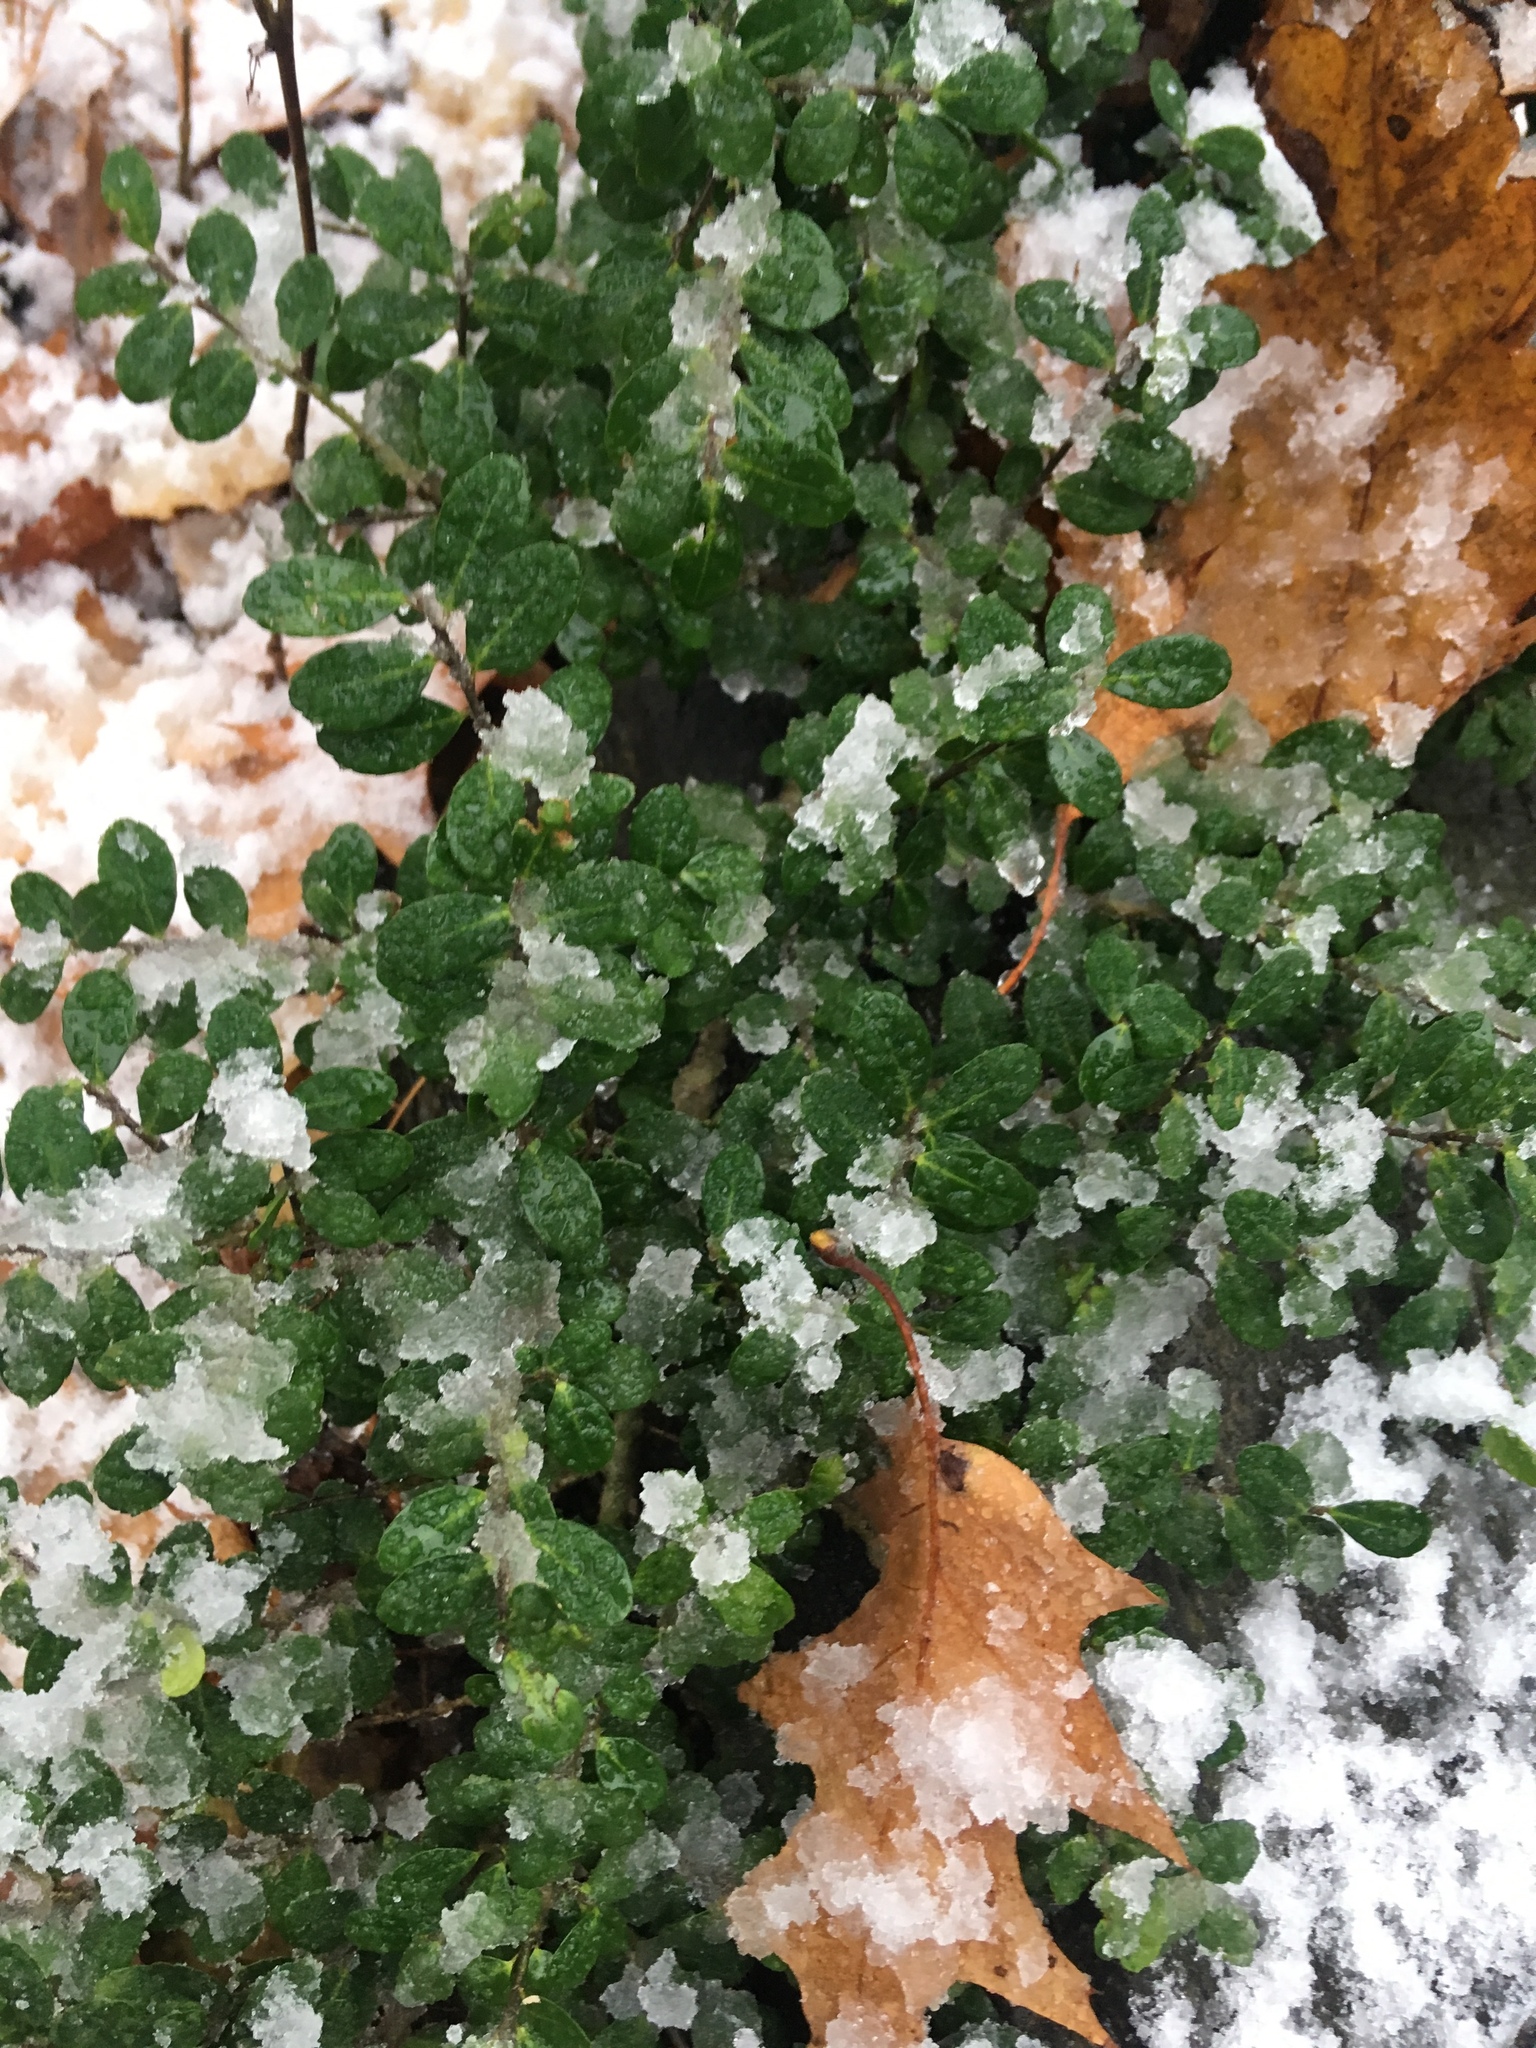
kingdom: Plantae
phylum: Tracheophyta
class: Magnoliopsida
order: Aquifoliales
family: Aquifoliaceae
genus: Ilex
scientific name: Ilex crenata
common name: Japanese holly
